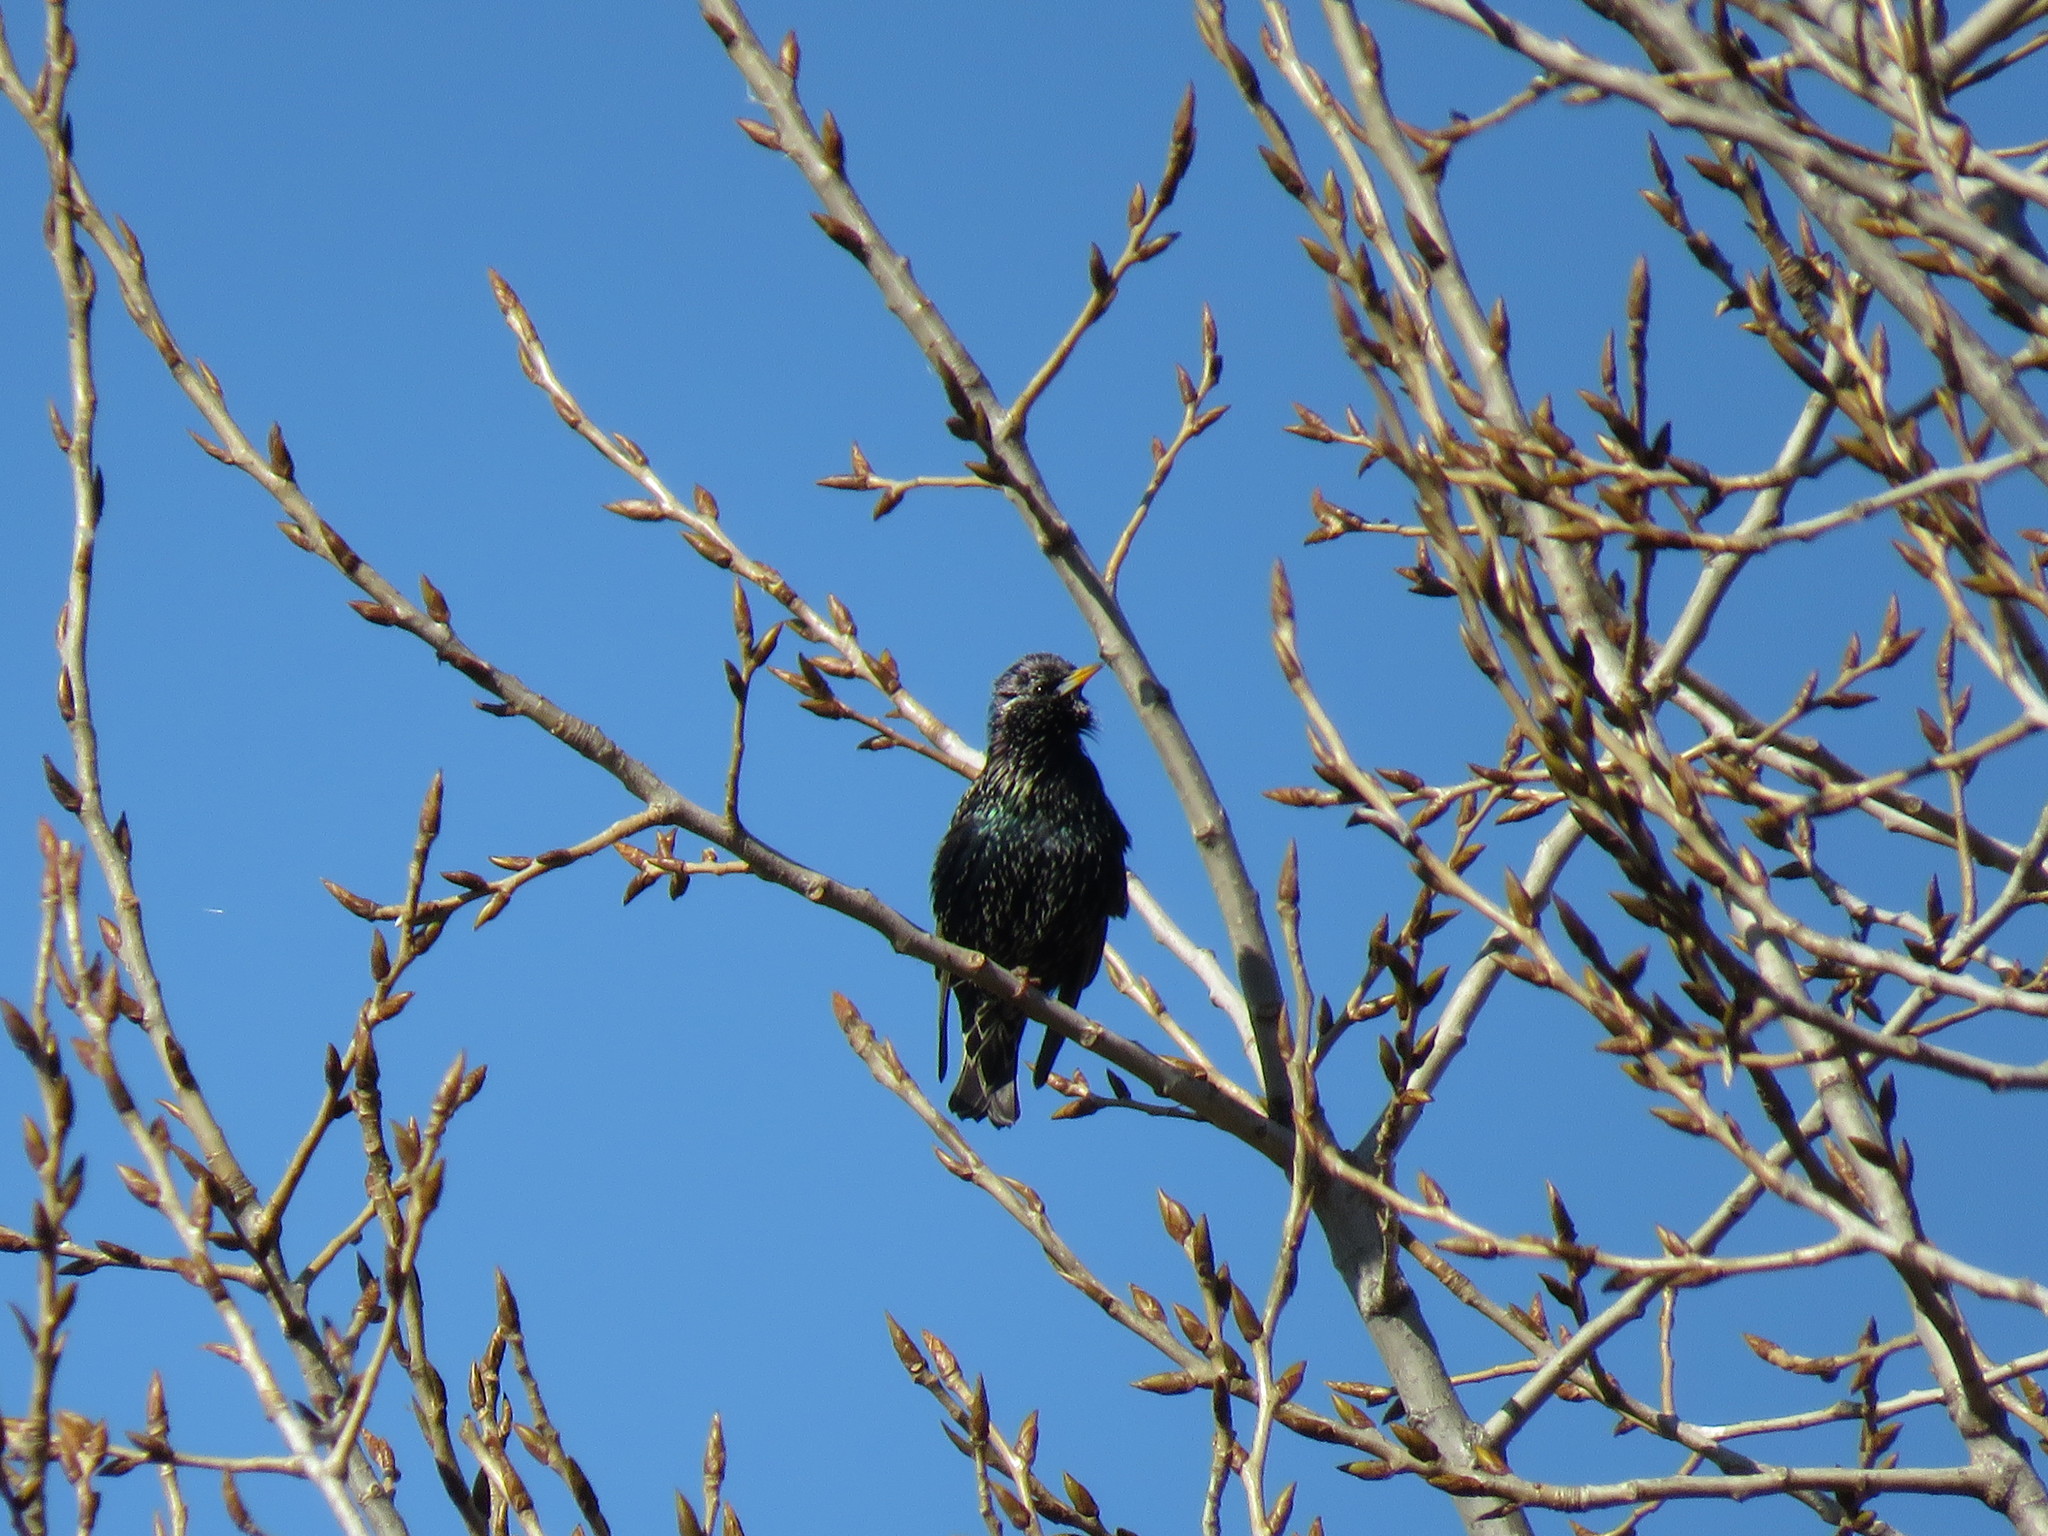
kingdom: Animalia
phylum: Chordata
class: Aves
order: Passeriformes
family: Sturnidae
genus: Sturnus
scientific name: Sturnus vulgaris
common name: Common starling
